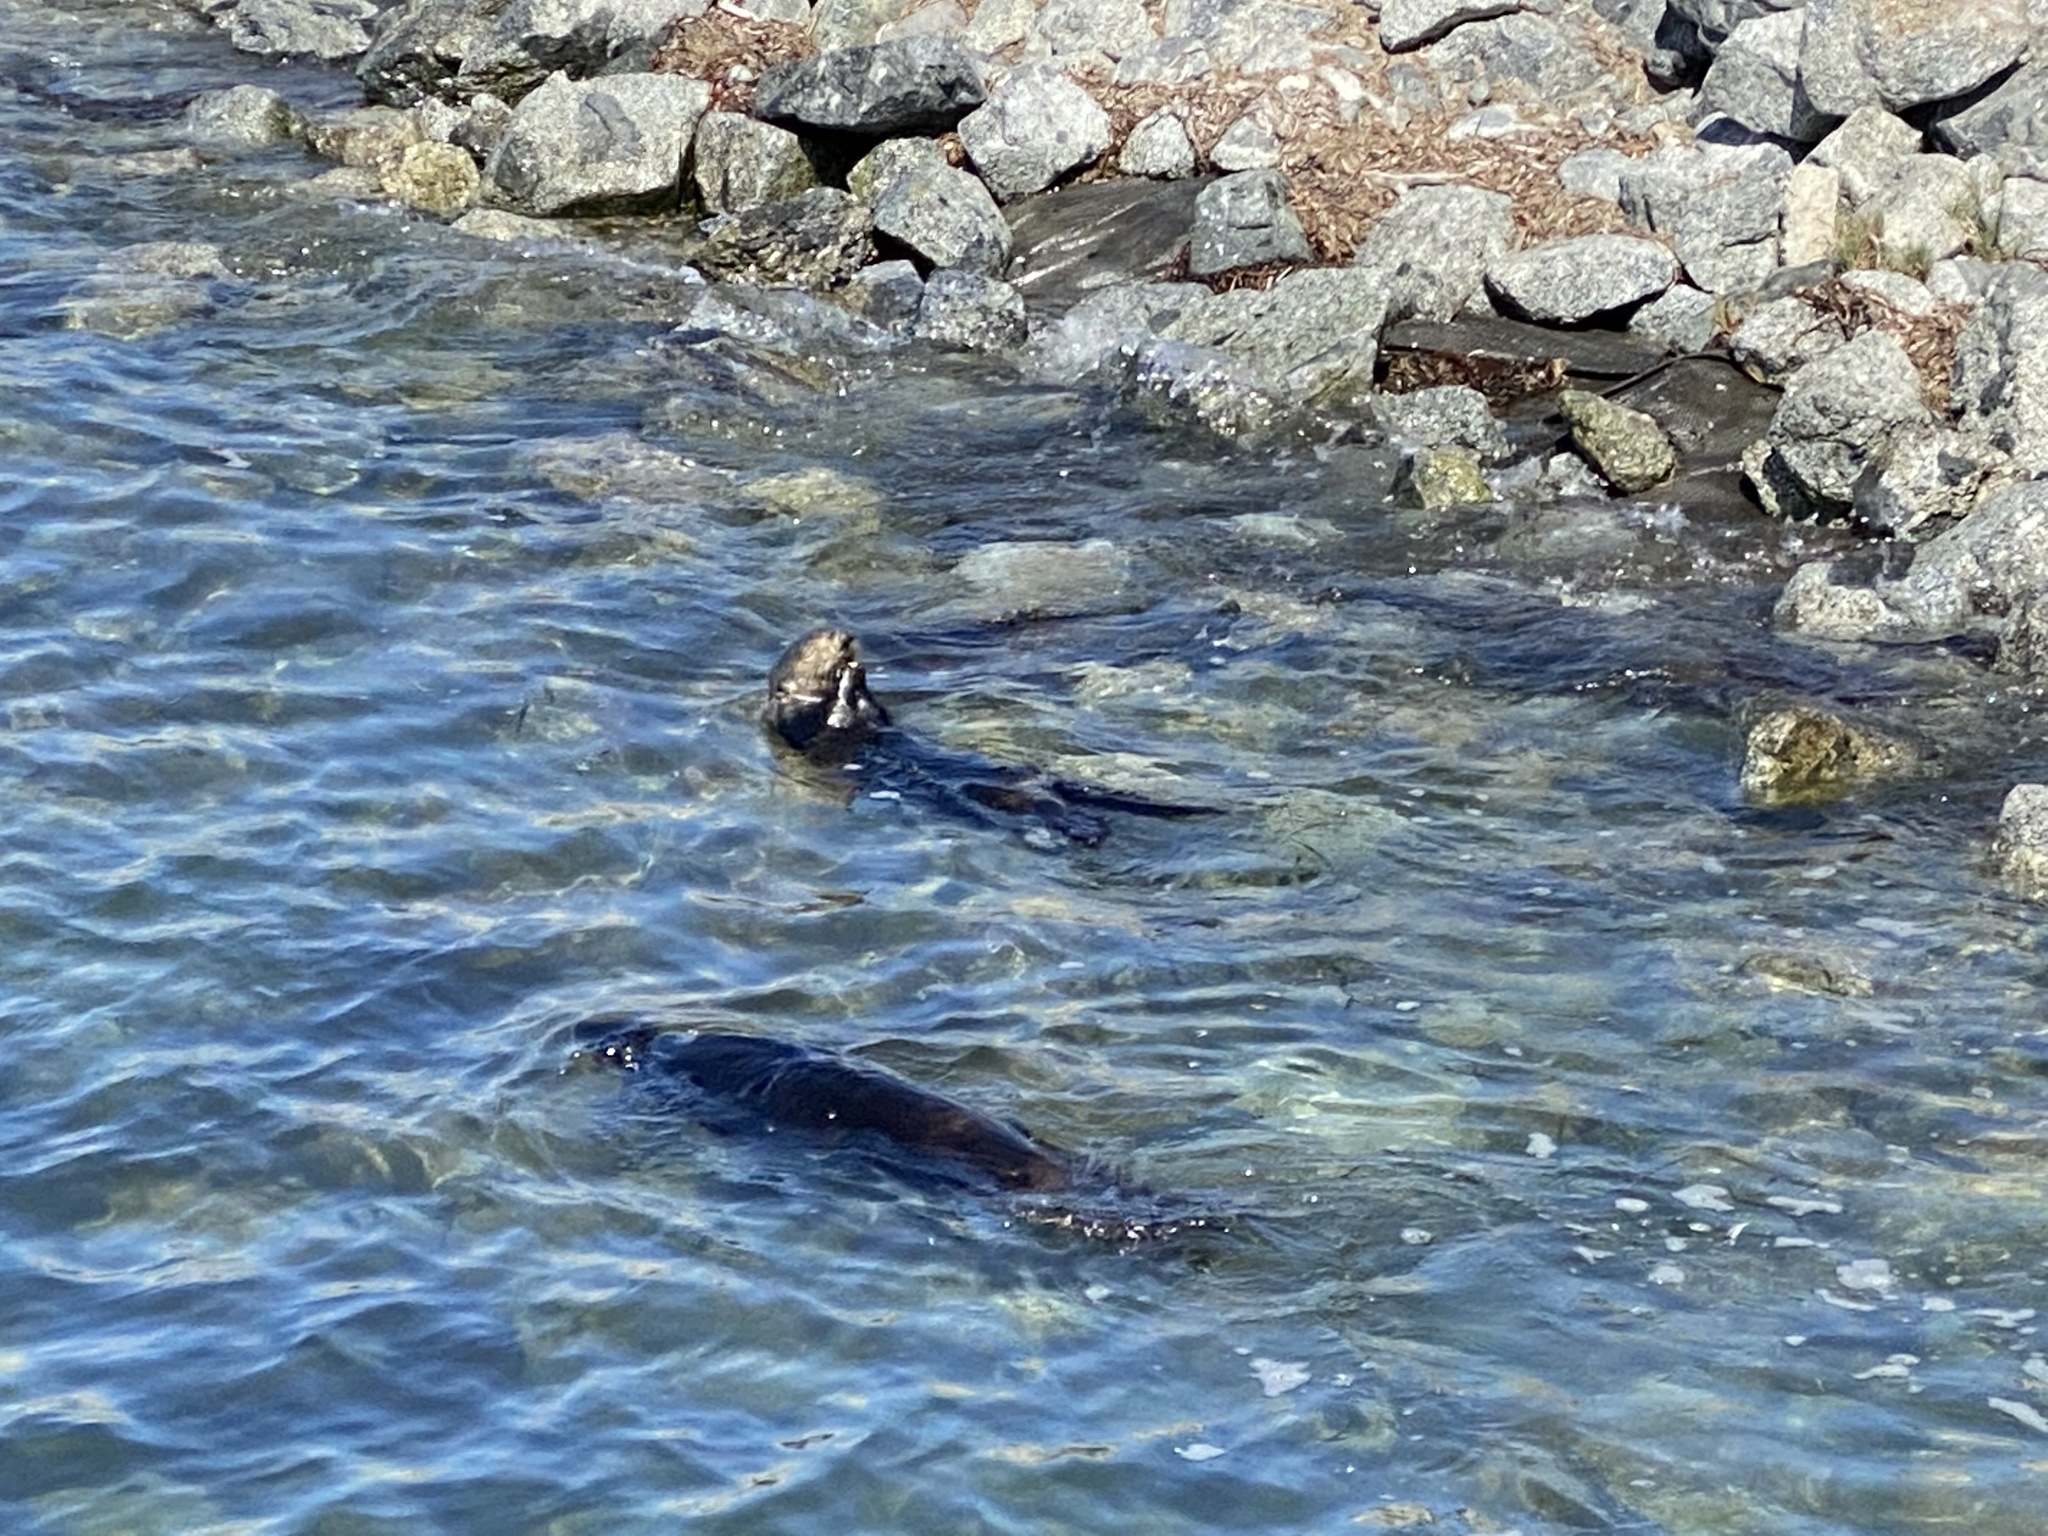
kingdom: Animalia
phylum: Chordata
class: Mammalia
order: Carnivora
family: Mustelidae
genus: Enhydra
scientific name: Enhydra lutris
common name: Sea otter
